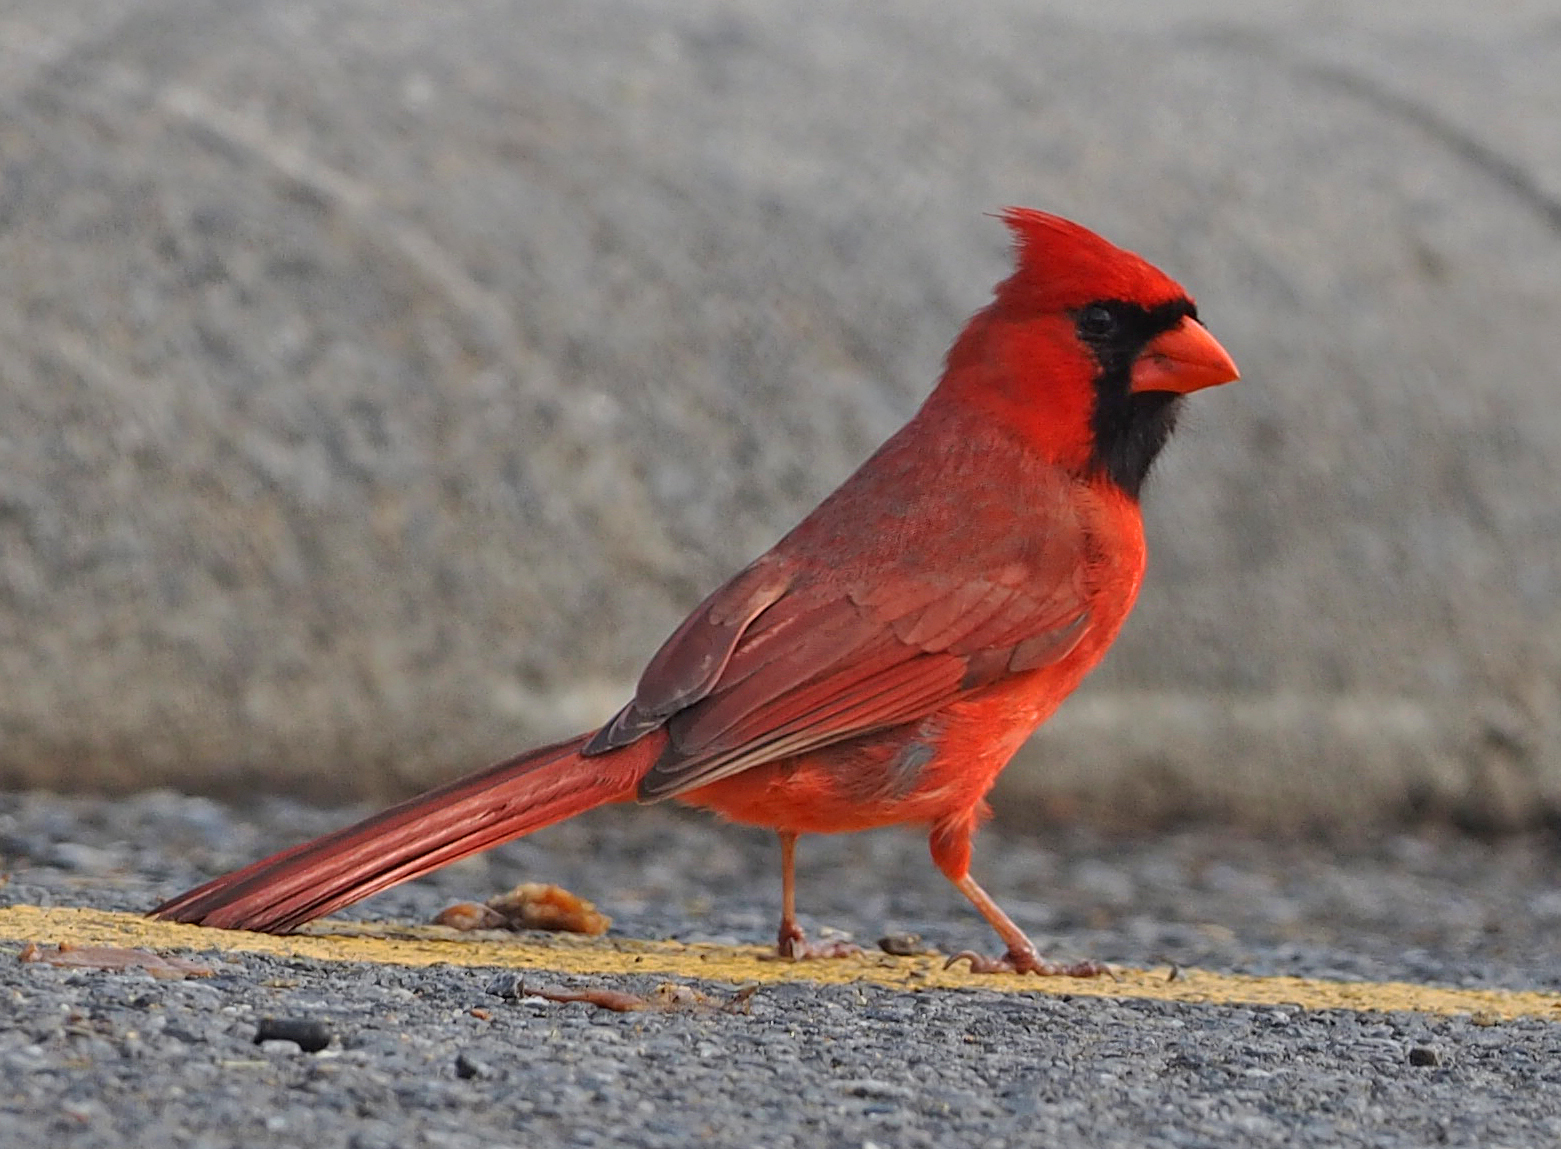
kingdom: Animalia
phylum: Chordata
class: Aves
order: Passeriformes
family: Cardinalidae
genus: Cardinalis
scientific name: Cardinalis cardinalis
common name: Northern cardinal
